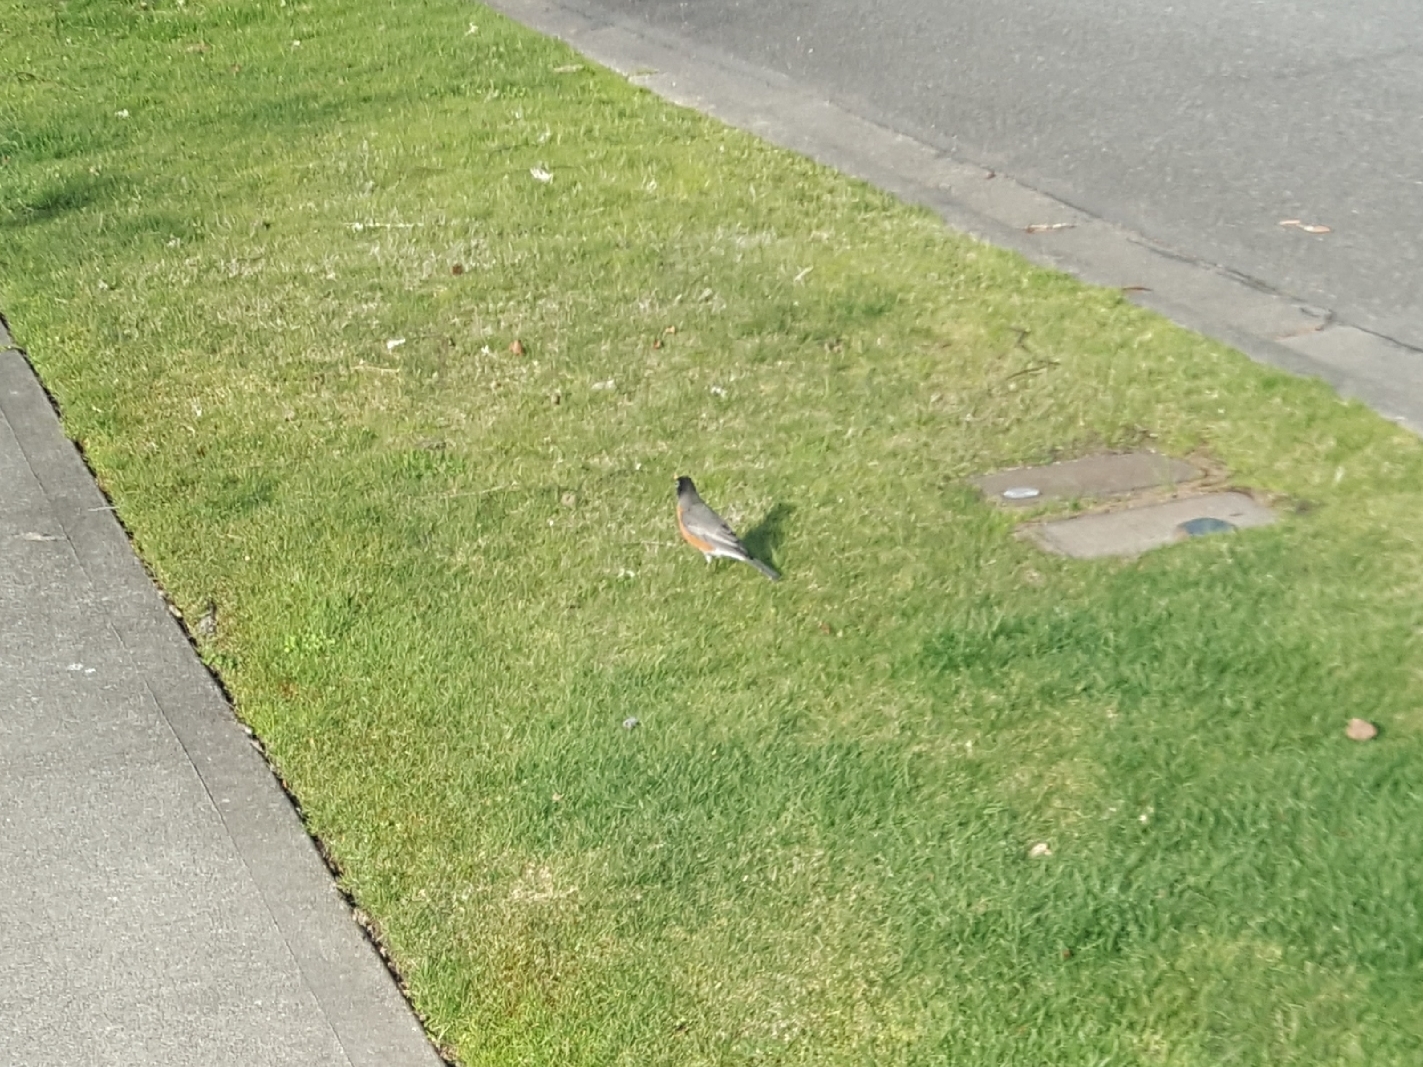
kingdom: Animalia
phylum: Chordata
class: Aves
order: Passeriformes
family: Turdidae
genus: Turdus
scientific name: Turdus migratorius
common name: American robin
